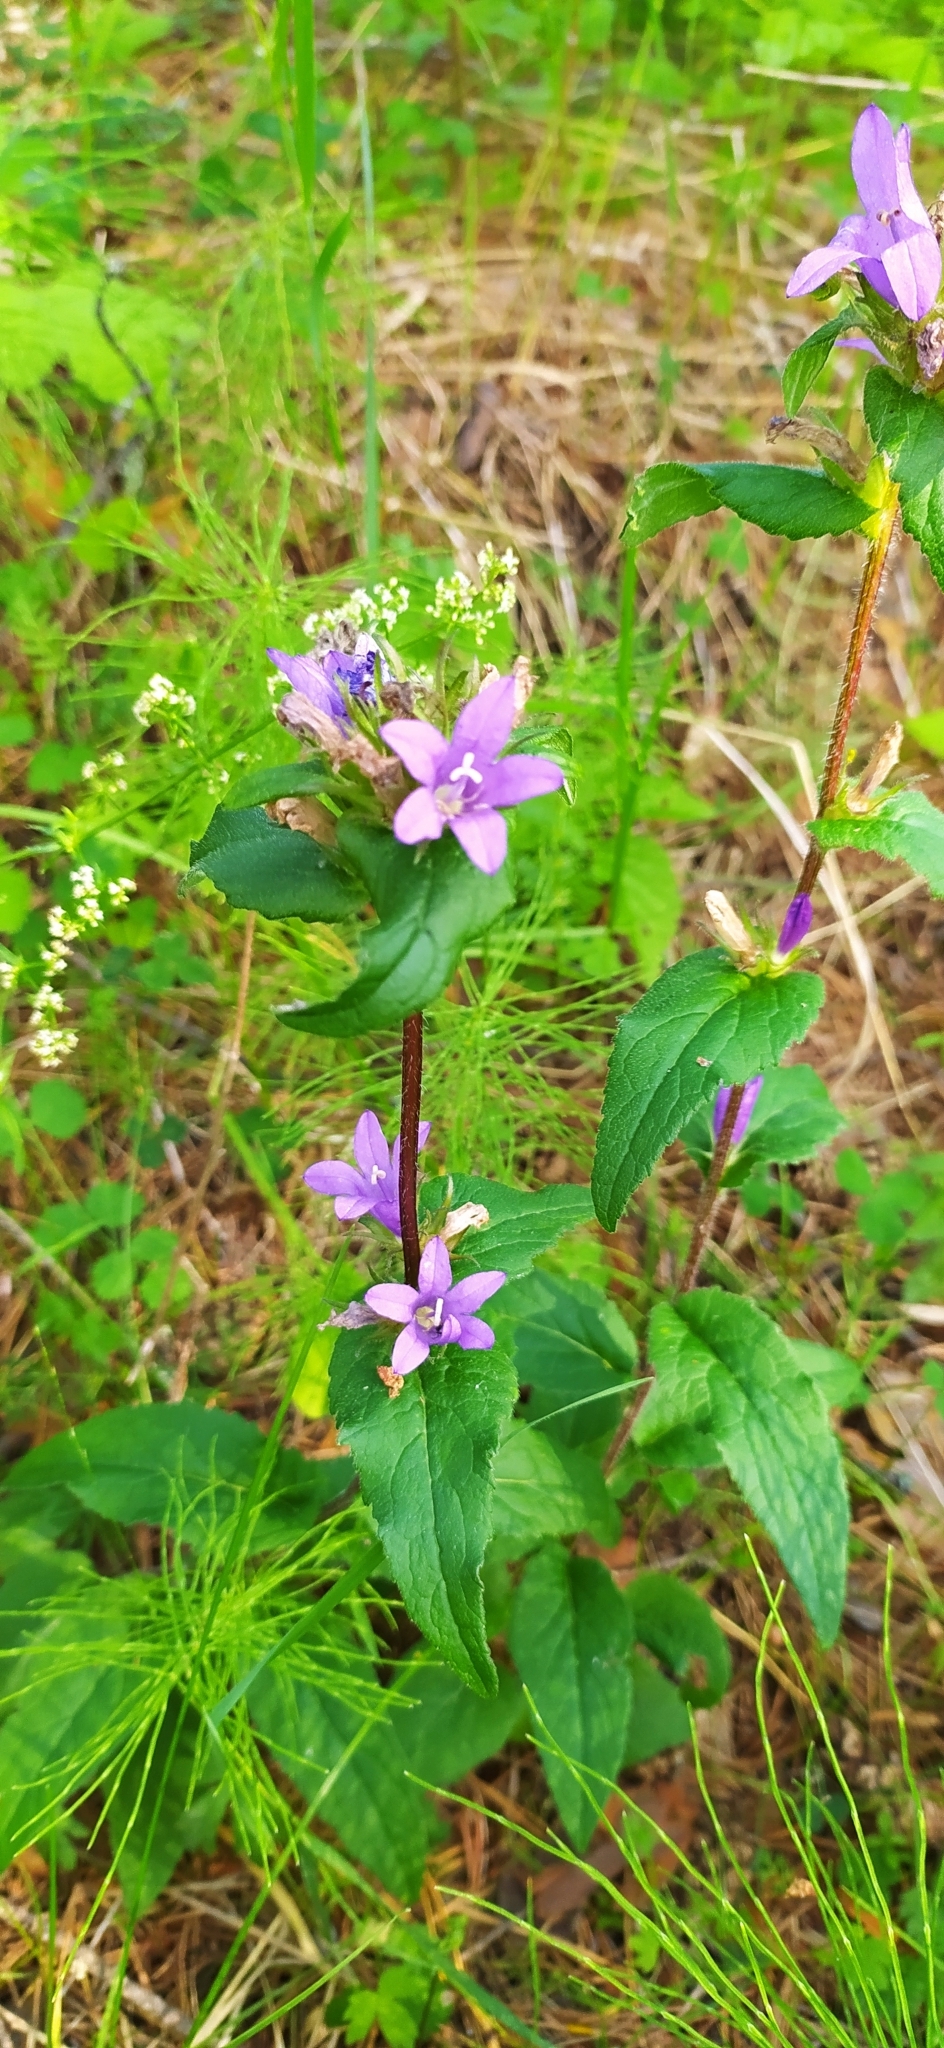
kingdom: Plantae
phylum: Tracheophyta
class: Magnoliopsida
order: Asterales
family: Campanulaceae
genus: Campanula
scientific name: Campanula glomerata
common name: Clustered bellflower
